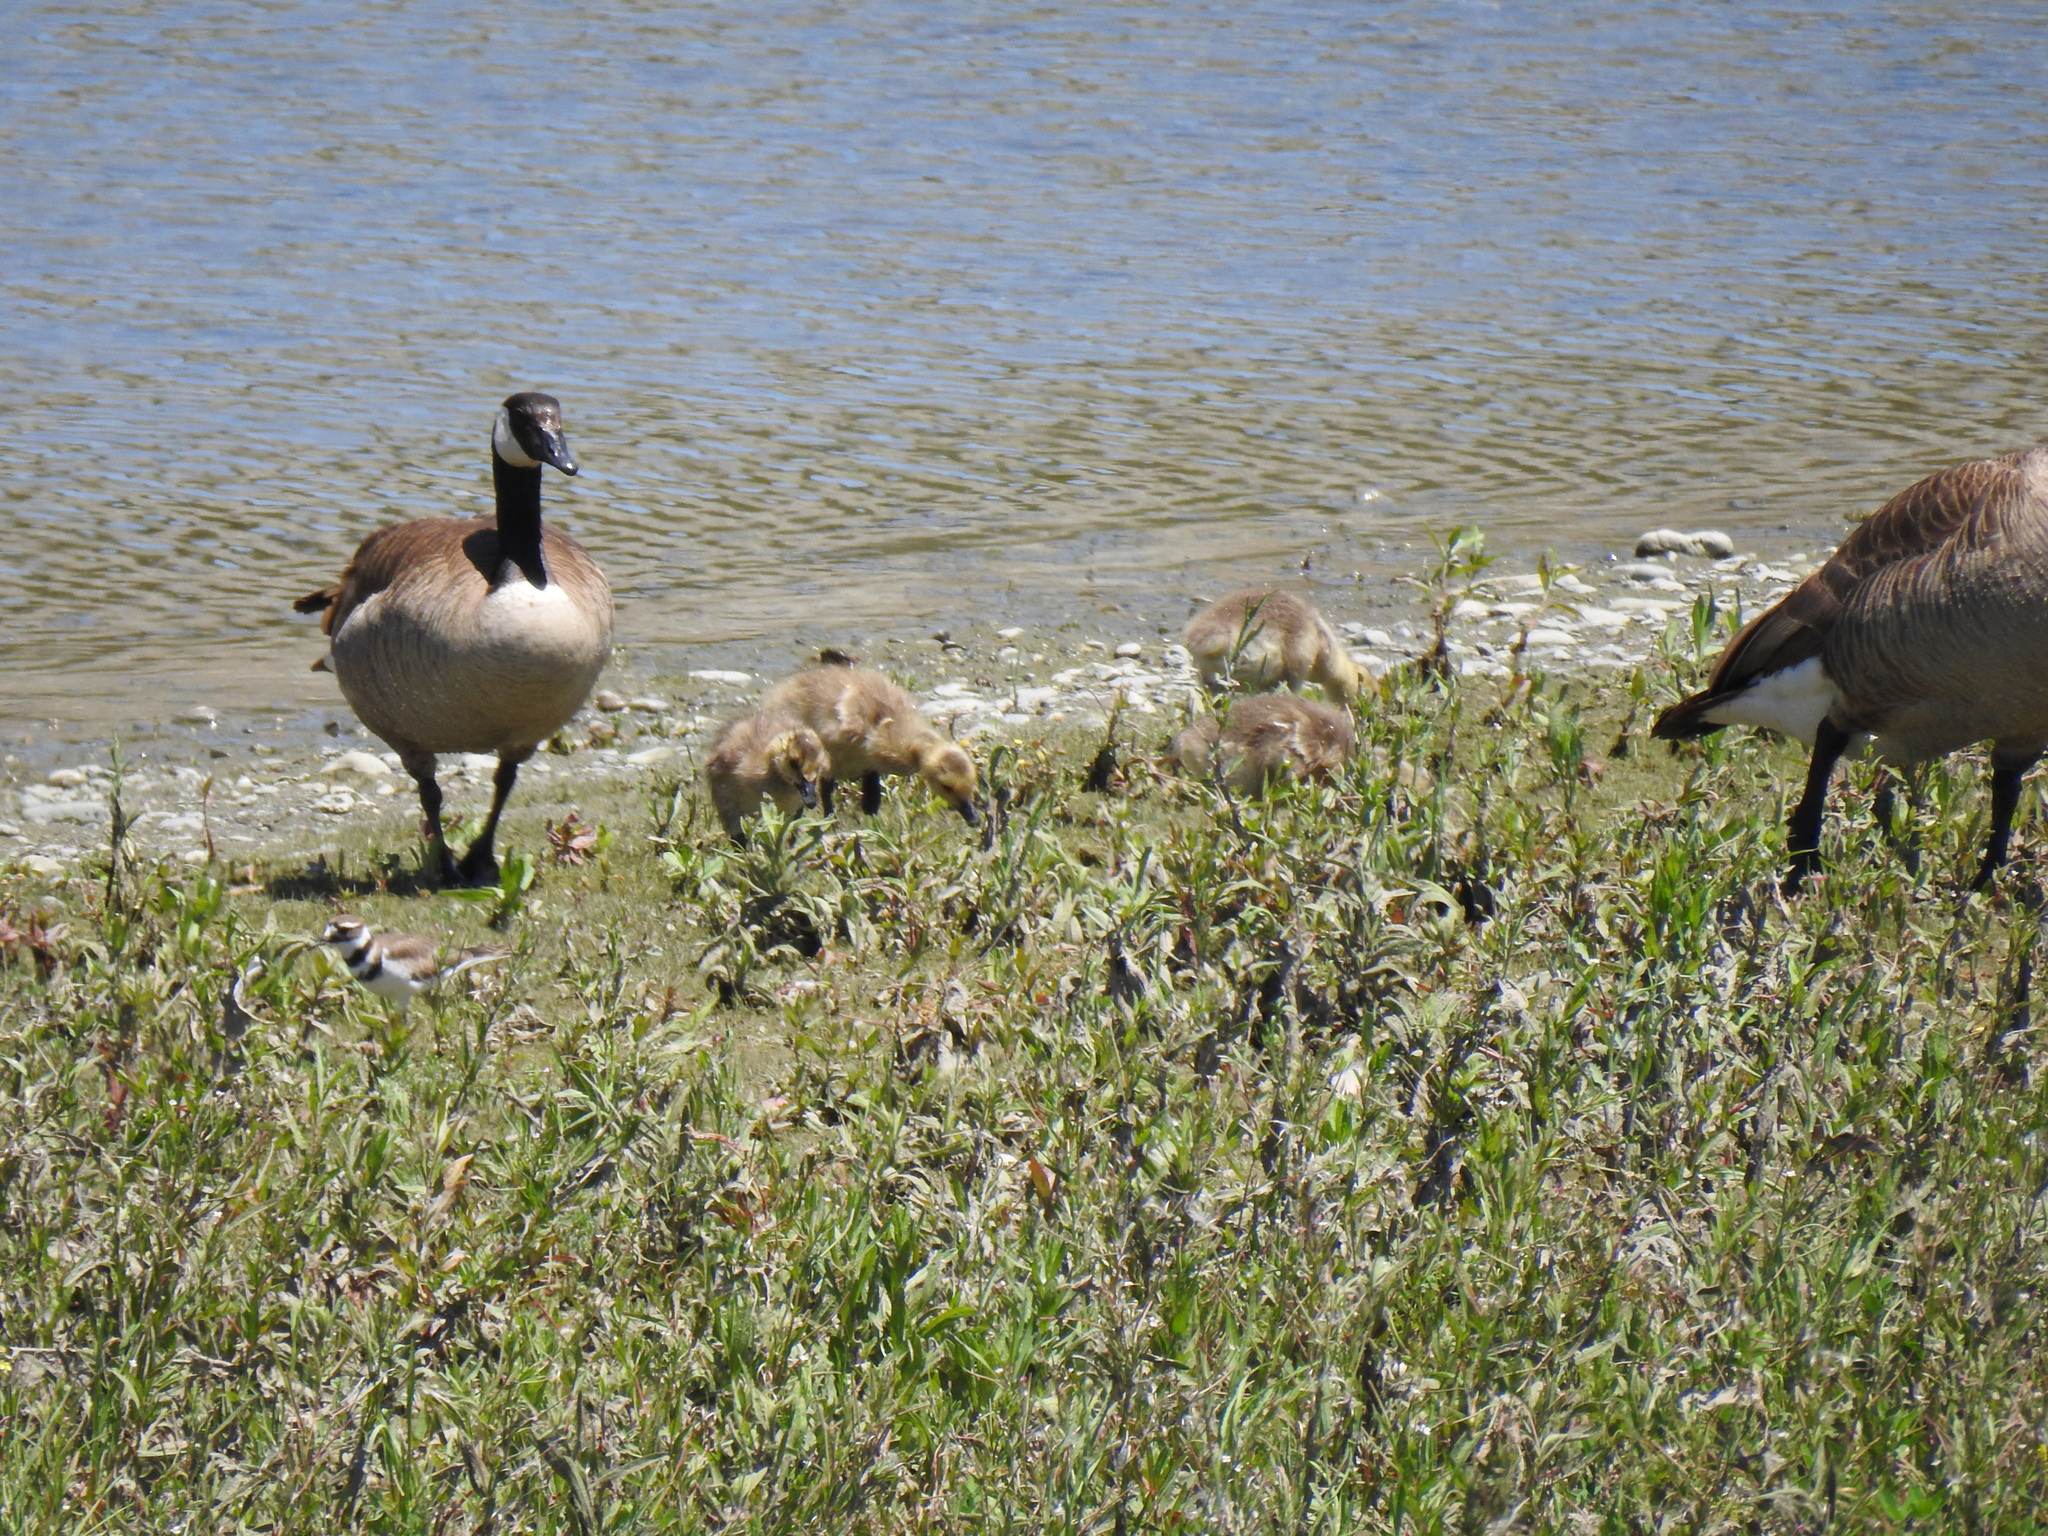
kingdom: Animalia
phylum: Chordata
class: Aves
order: Anseriformes
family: Anatidae
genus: Branta
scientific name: Branta canadensis
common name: Canada goose
